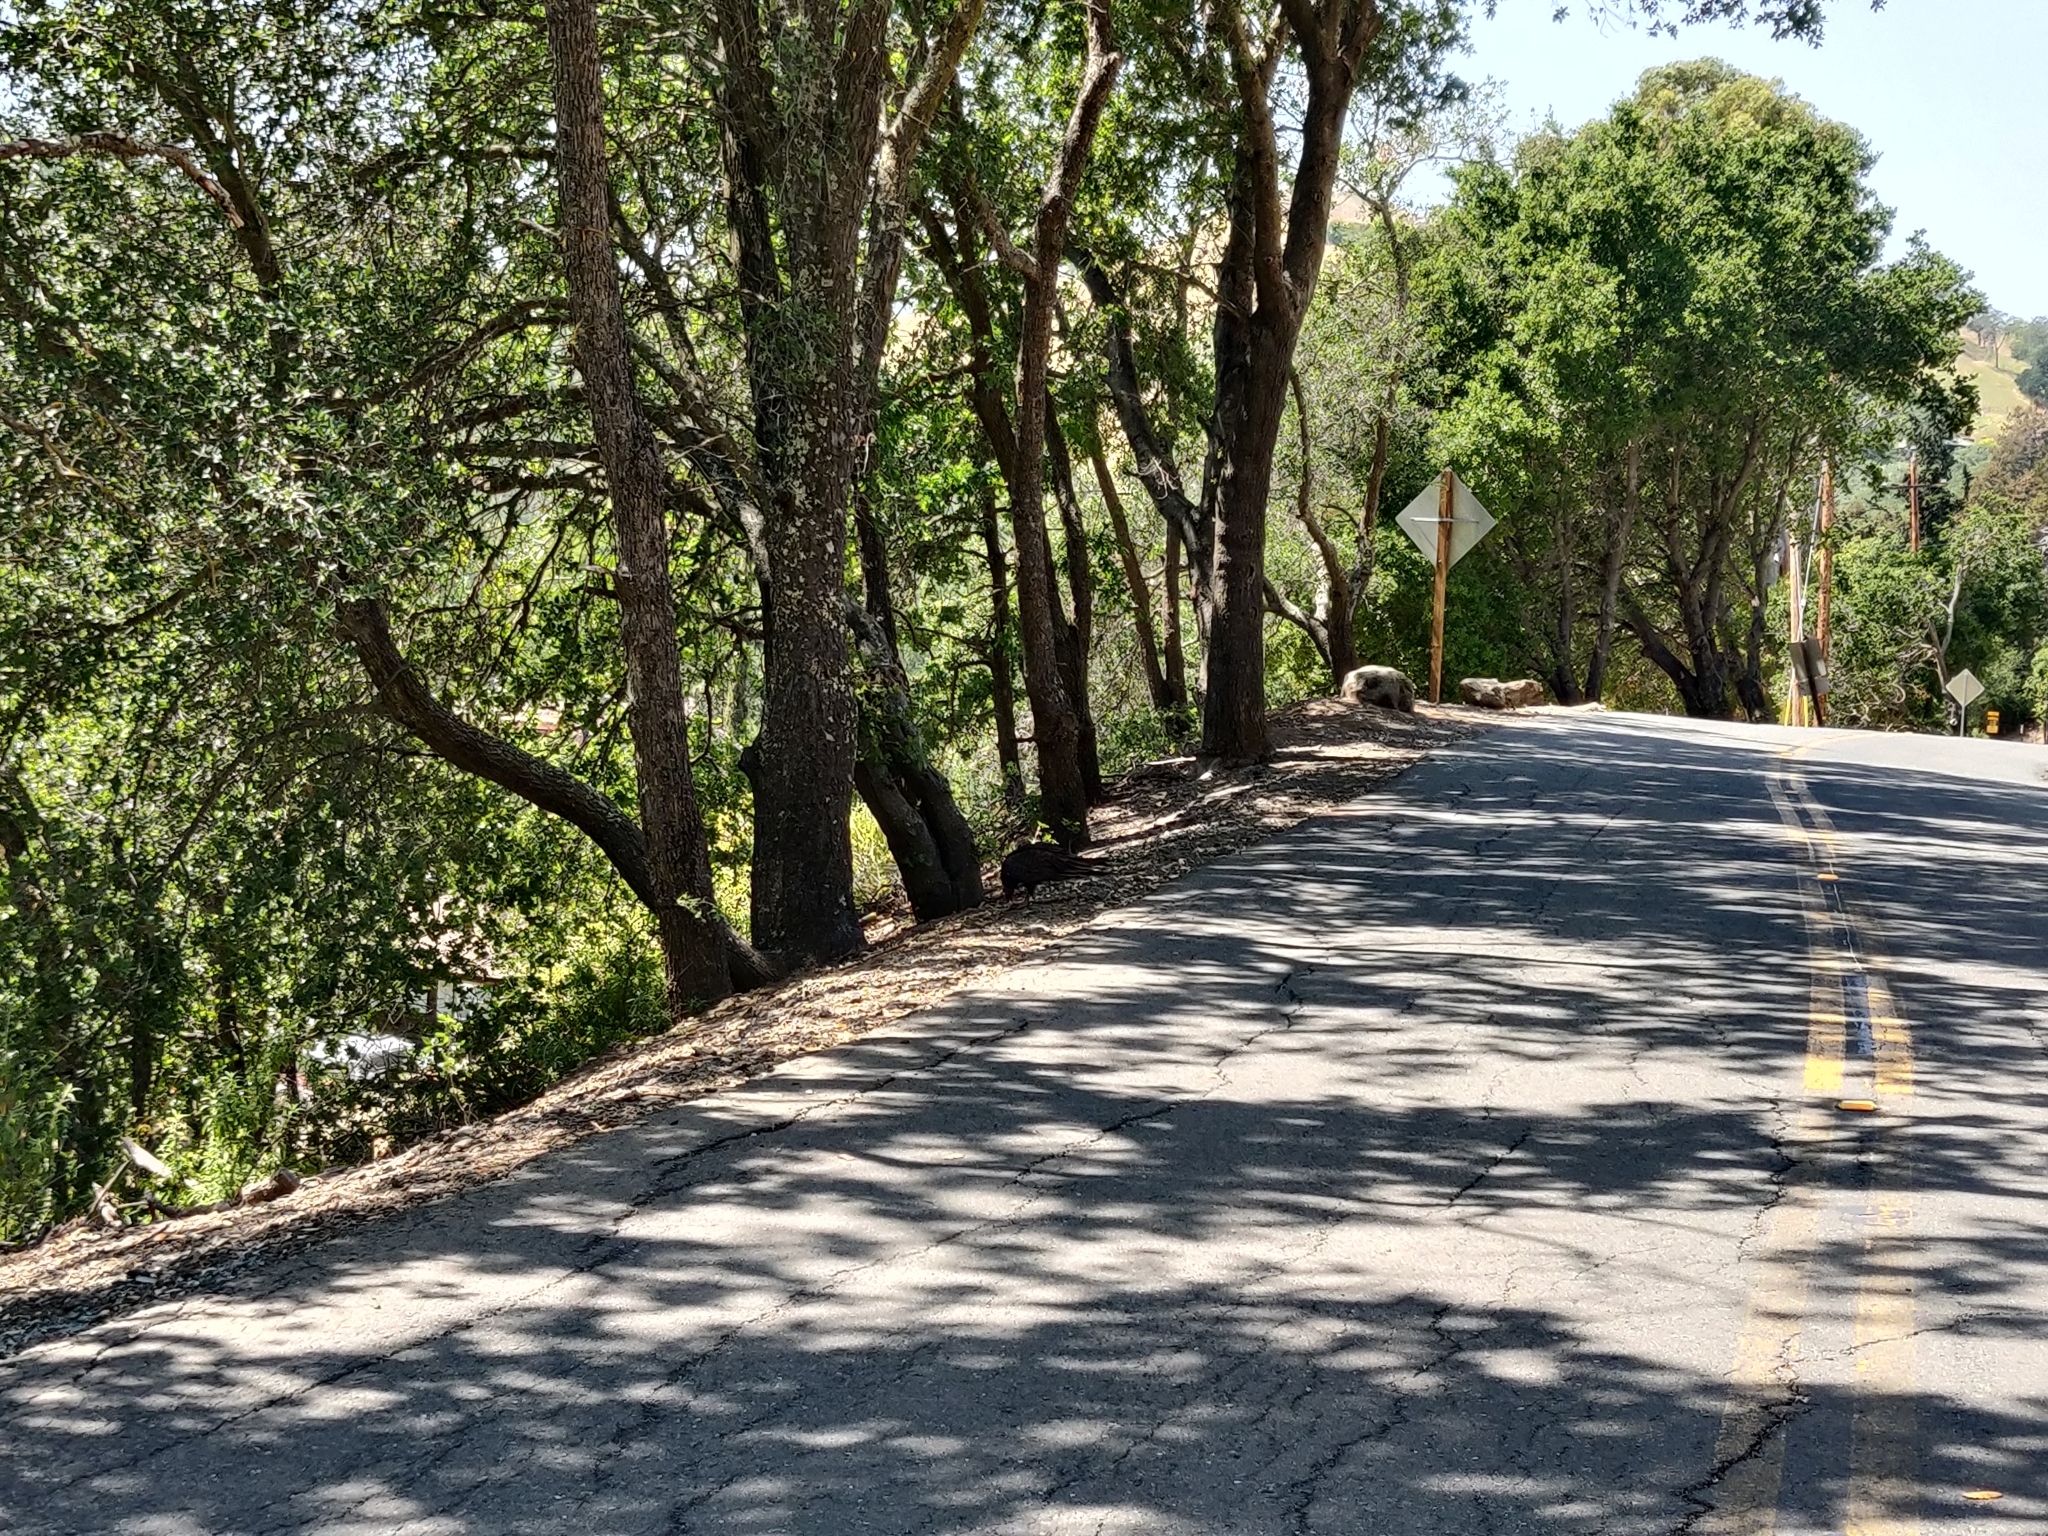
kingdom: Animalia
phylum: Chordata
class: Aves
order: Accipitriformes
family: Cathartidae
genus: Cathartes
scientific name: Cathartes aura
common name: Turkey vulture
